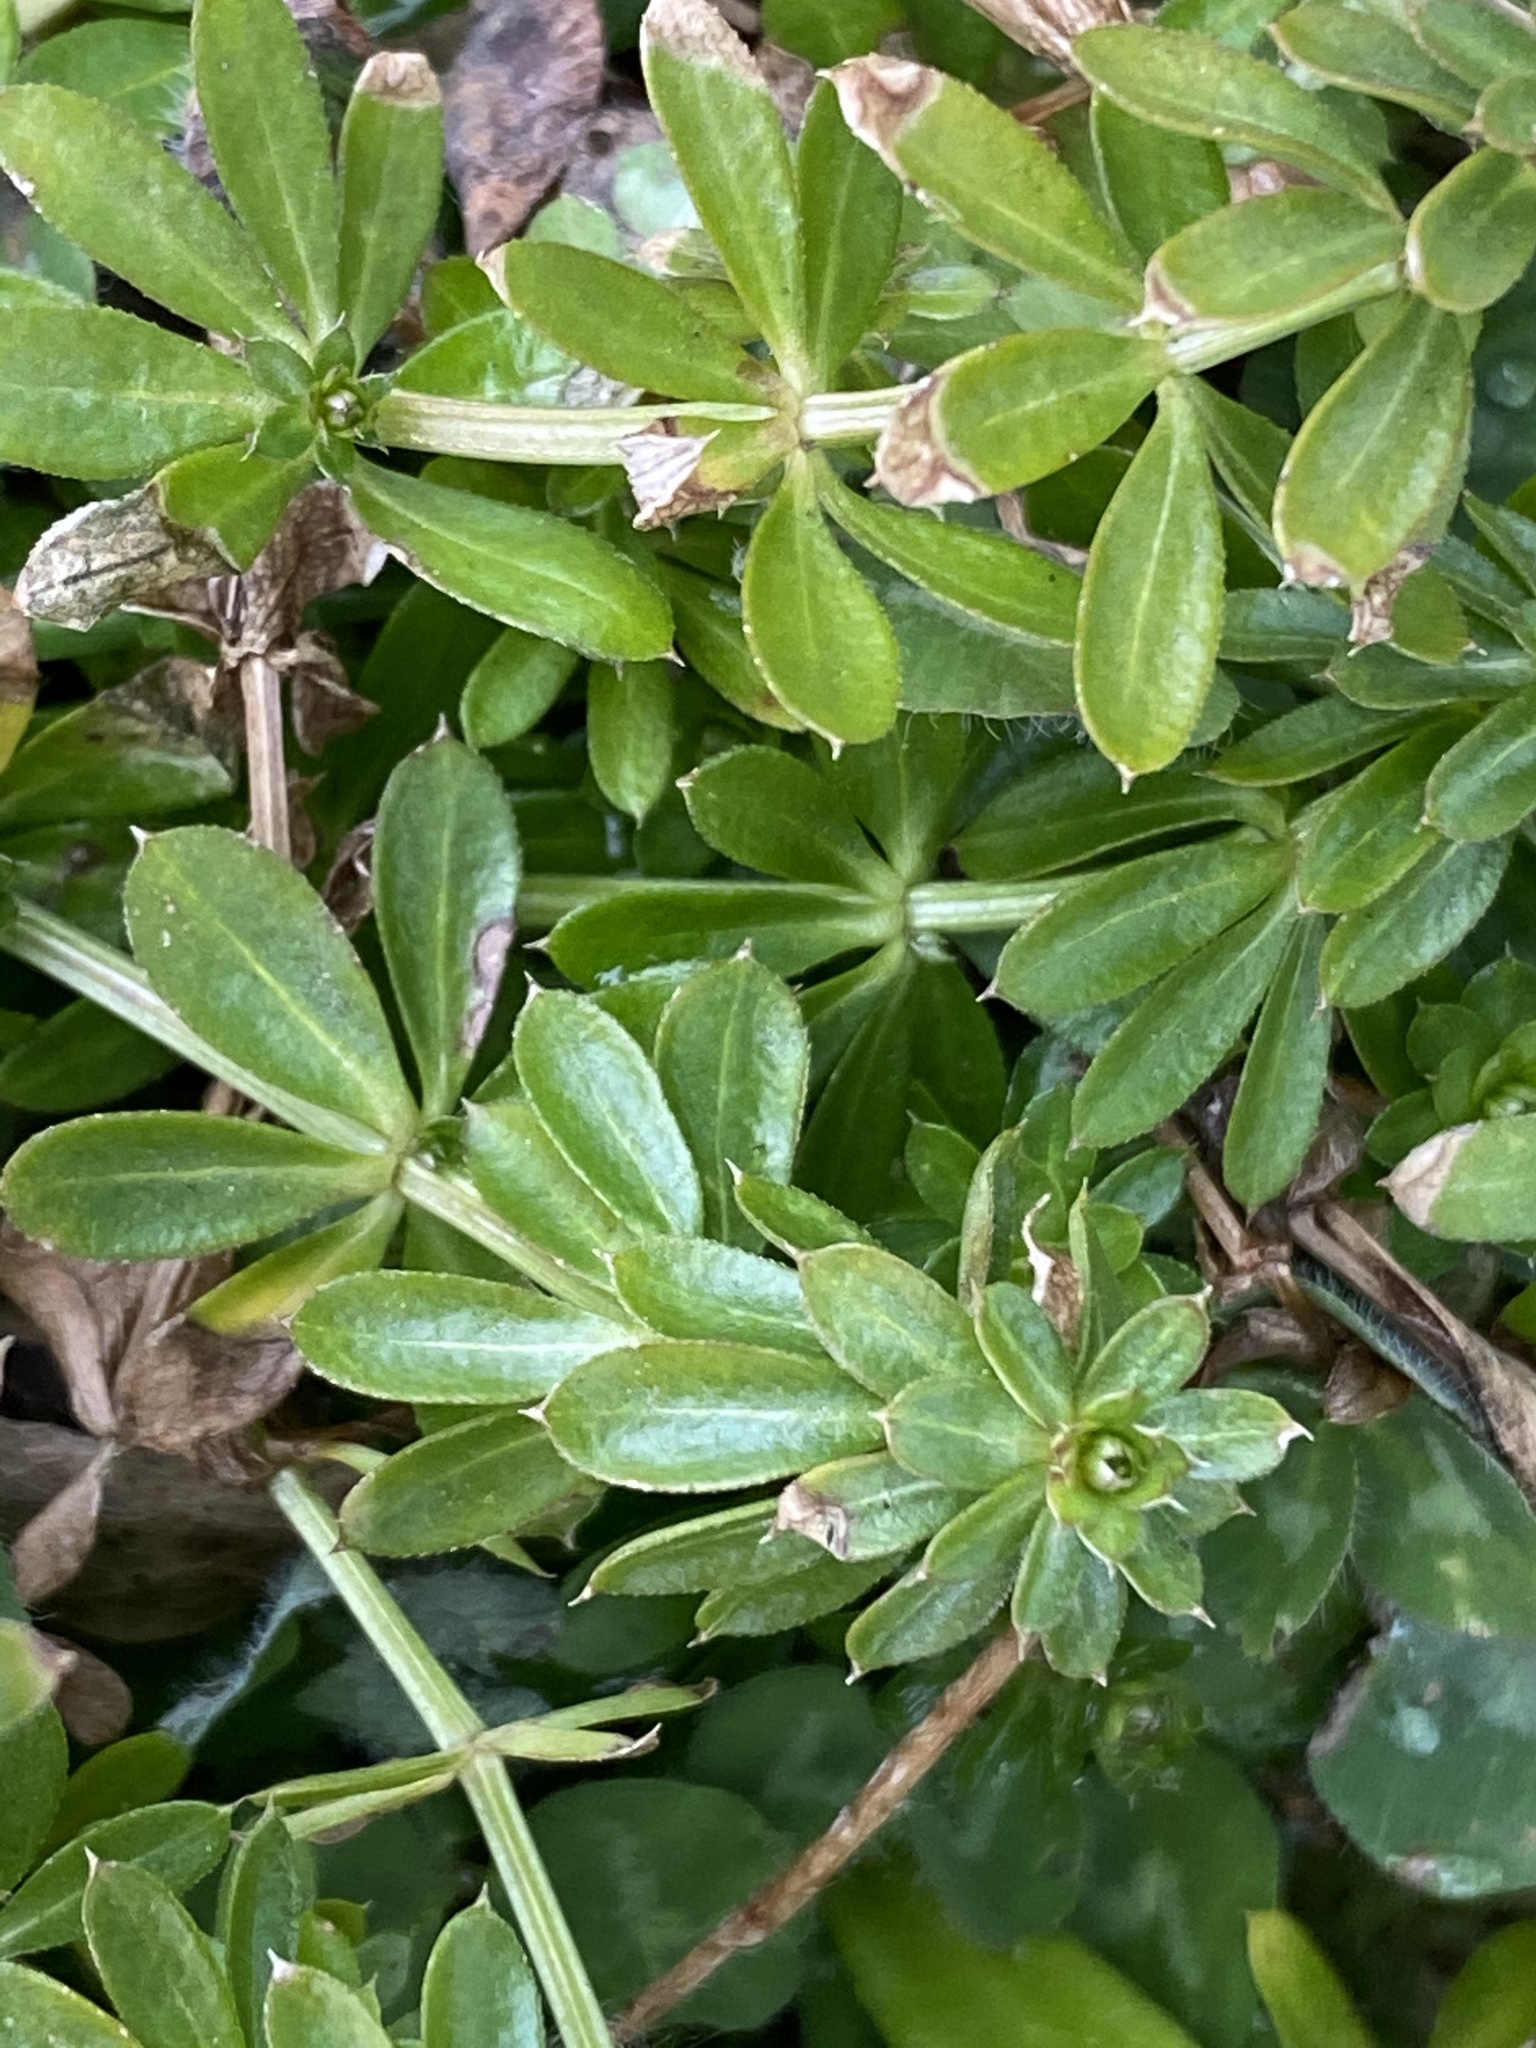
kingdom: Plantae
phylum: Tracheophyta
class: Magnoliopsida
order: Gentianales
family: Rubiaceae
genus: Galium
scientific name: Galium mollugo
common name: Hedge bedstraw
